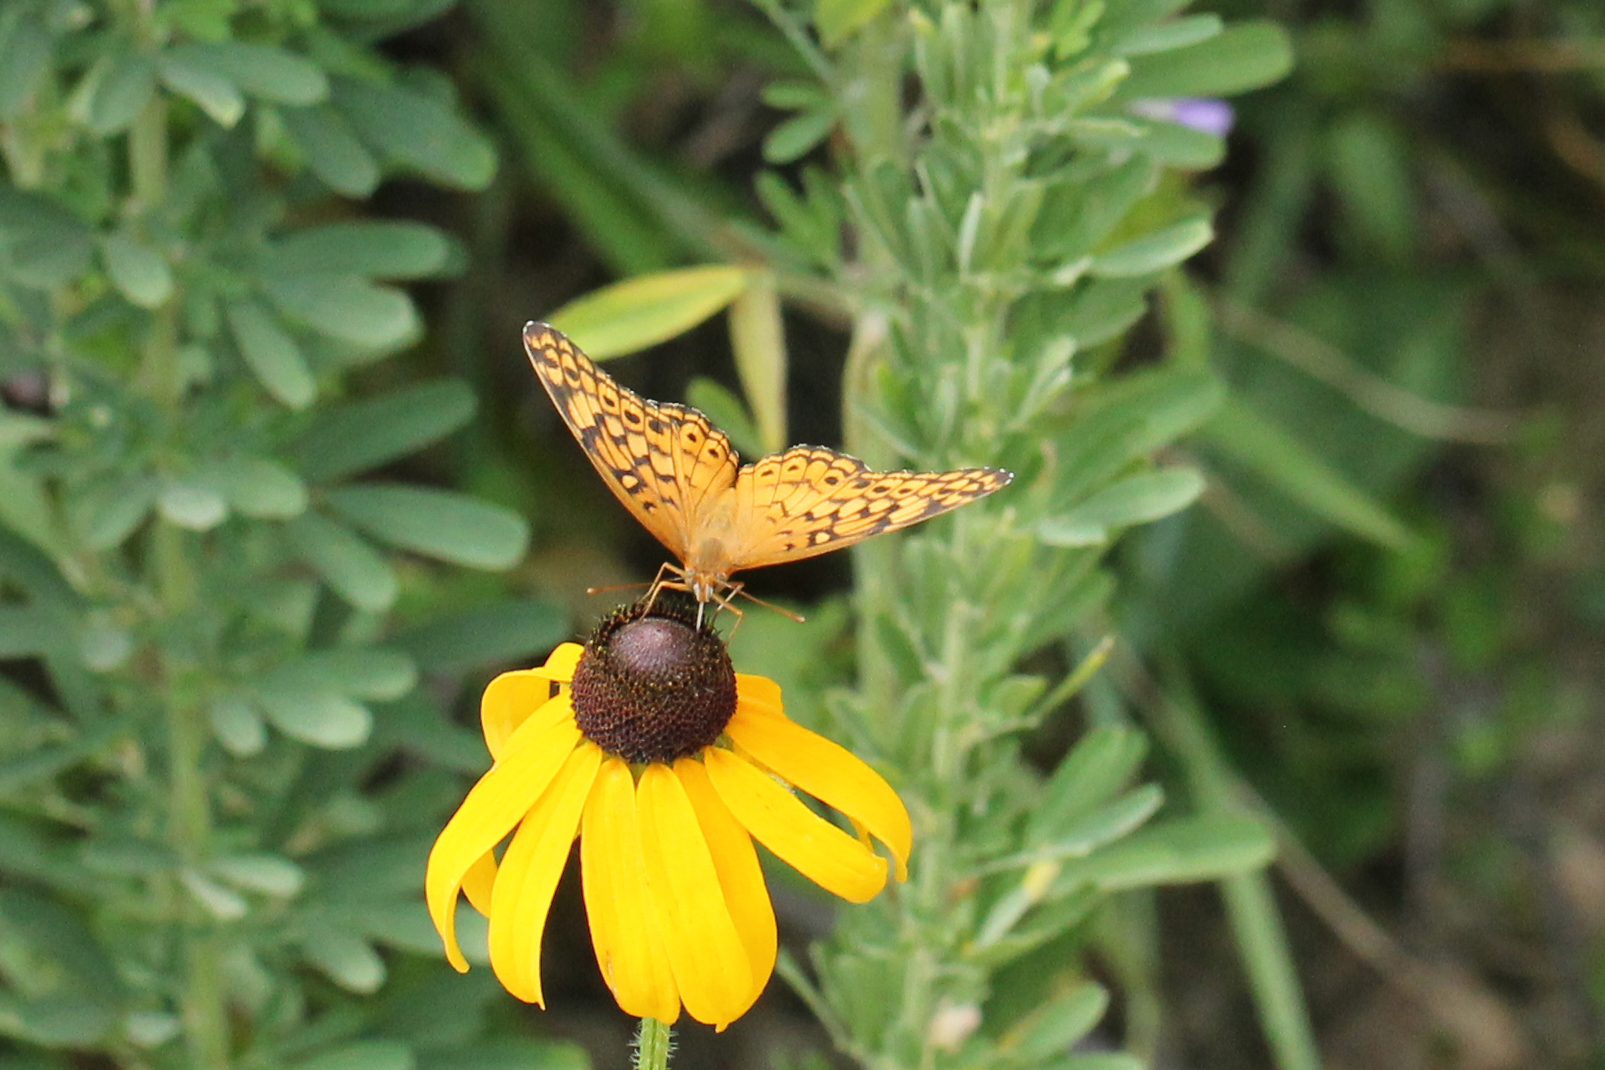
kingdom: Animalia
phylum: Arthropoda
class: Insecta
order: Lepidoptera
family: Nymphalidae
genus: Euptoieta
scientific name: Euptoieta claudia
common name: Variegated fritillary
